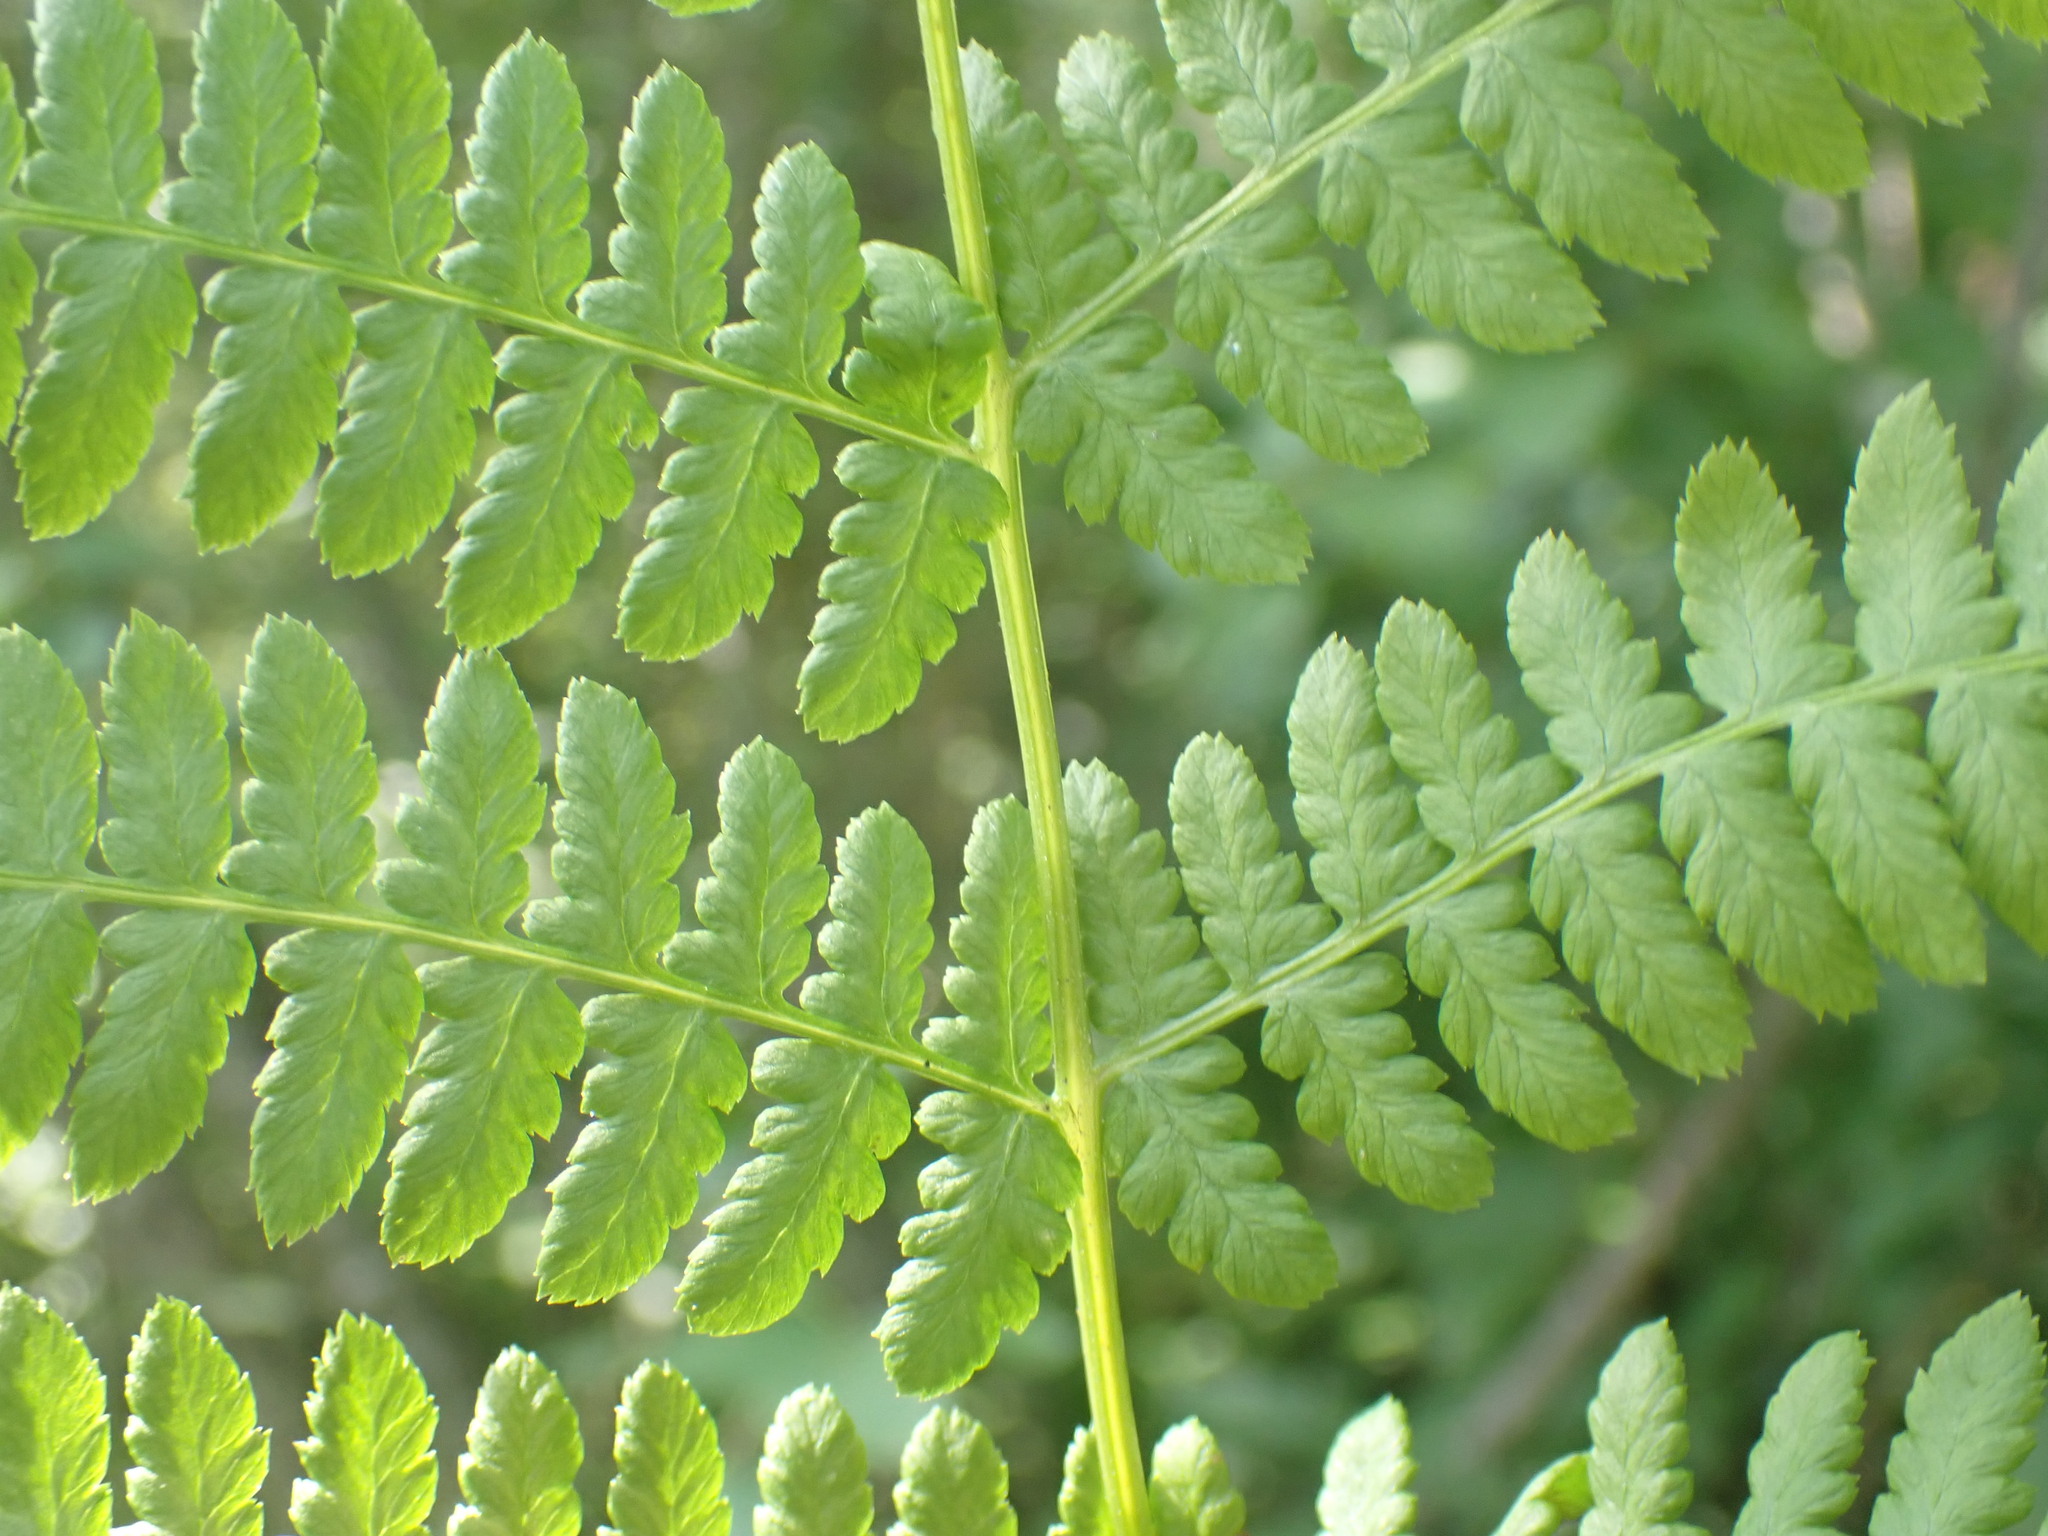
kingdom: Plantae
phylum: Tracheophyta
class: Polypodiopsida
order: Polypodiales
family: Athyriaceae
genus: Athyrium
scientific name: Athyrium filix-femina
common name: Lady fern
